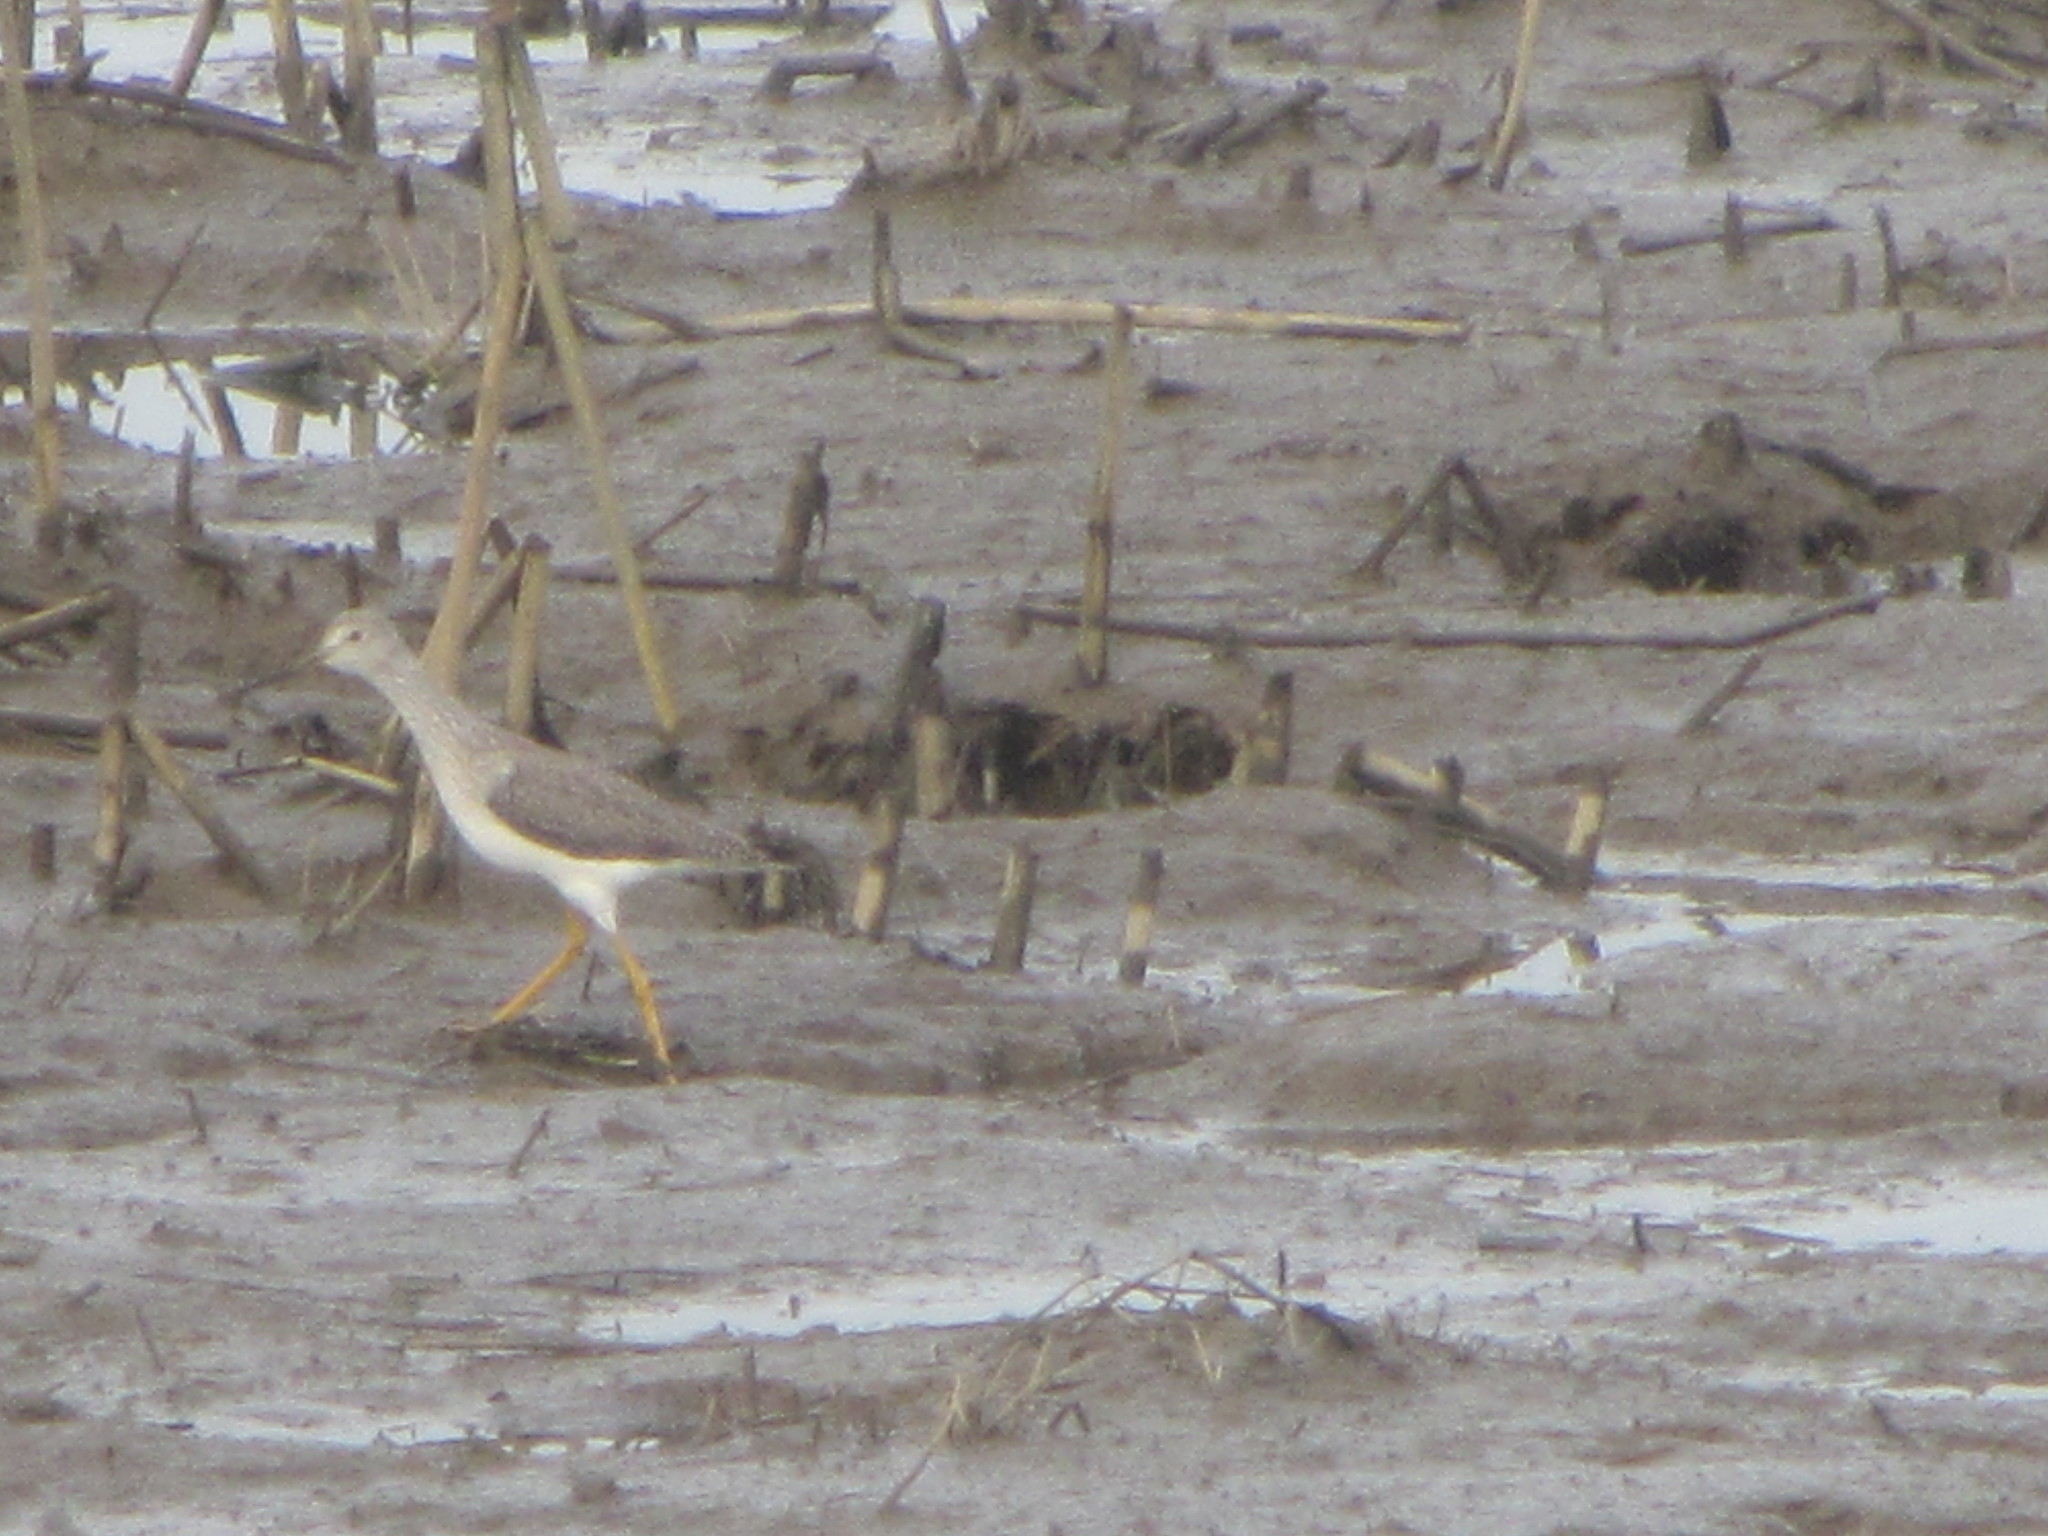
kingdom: Animalia
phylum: Chordata
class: Aves
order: Charadriiformes
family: Scolopacidae
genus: Tringa
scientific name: Tringa melanoleuca
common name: Greater yellowlegs
